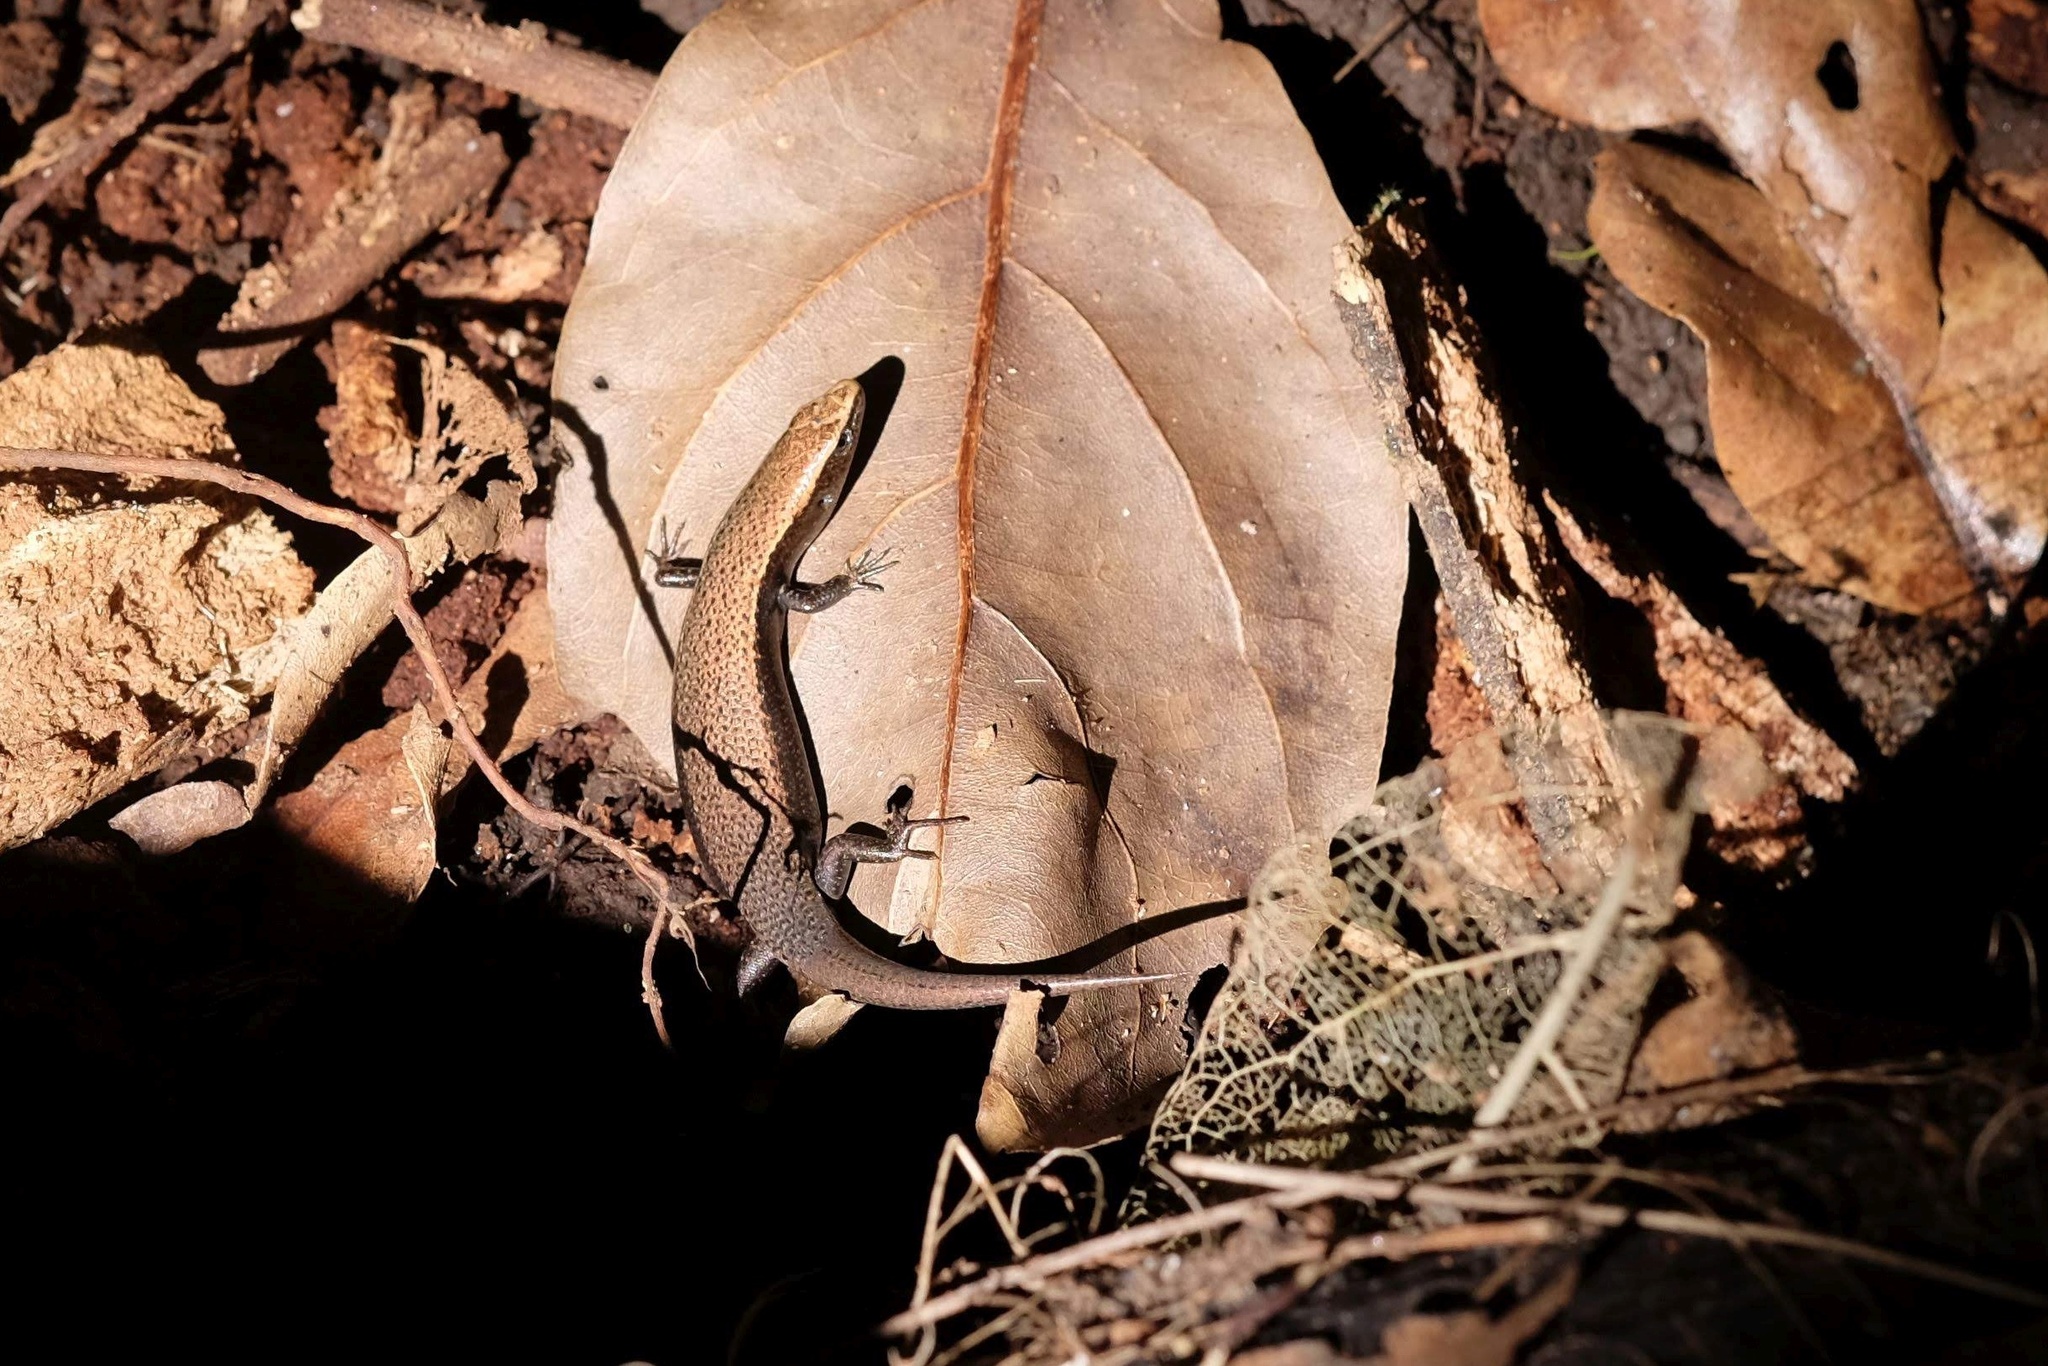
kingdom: Animalia
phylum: Chordata
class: Squamata
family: Scincidae
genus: Caledoniscincus
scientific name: Caledoniscincus atropunctatus
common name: Speckled litter skink
